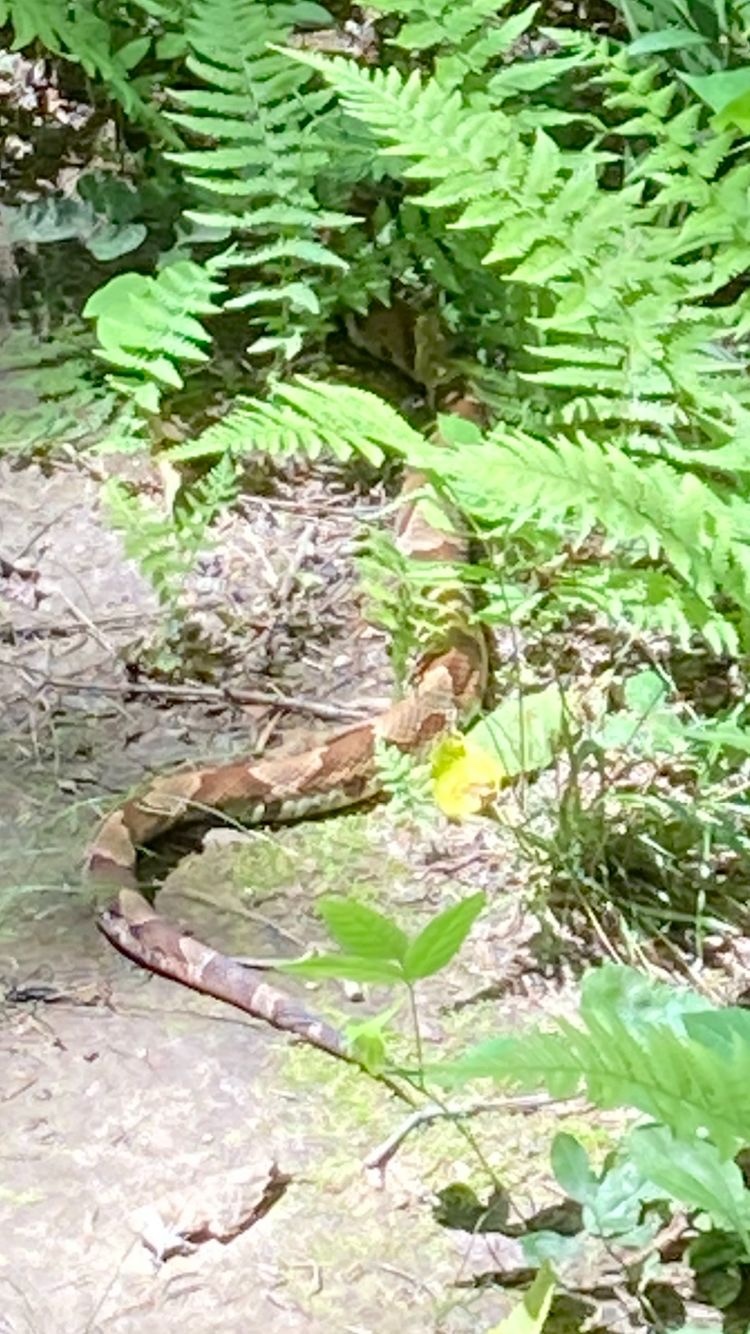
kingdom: Animalia
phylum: Chordata
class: Squamata
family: Viperidae
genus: Agkistrodon
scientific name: Agkistrodon contortrix
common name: Northern copperhead
